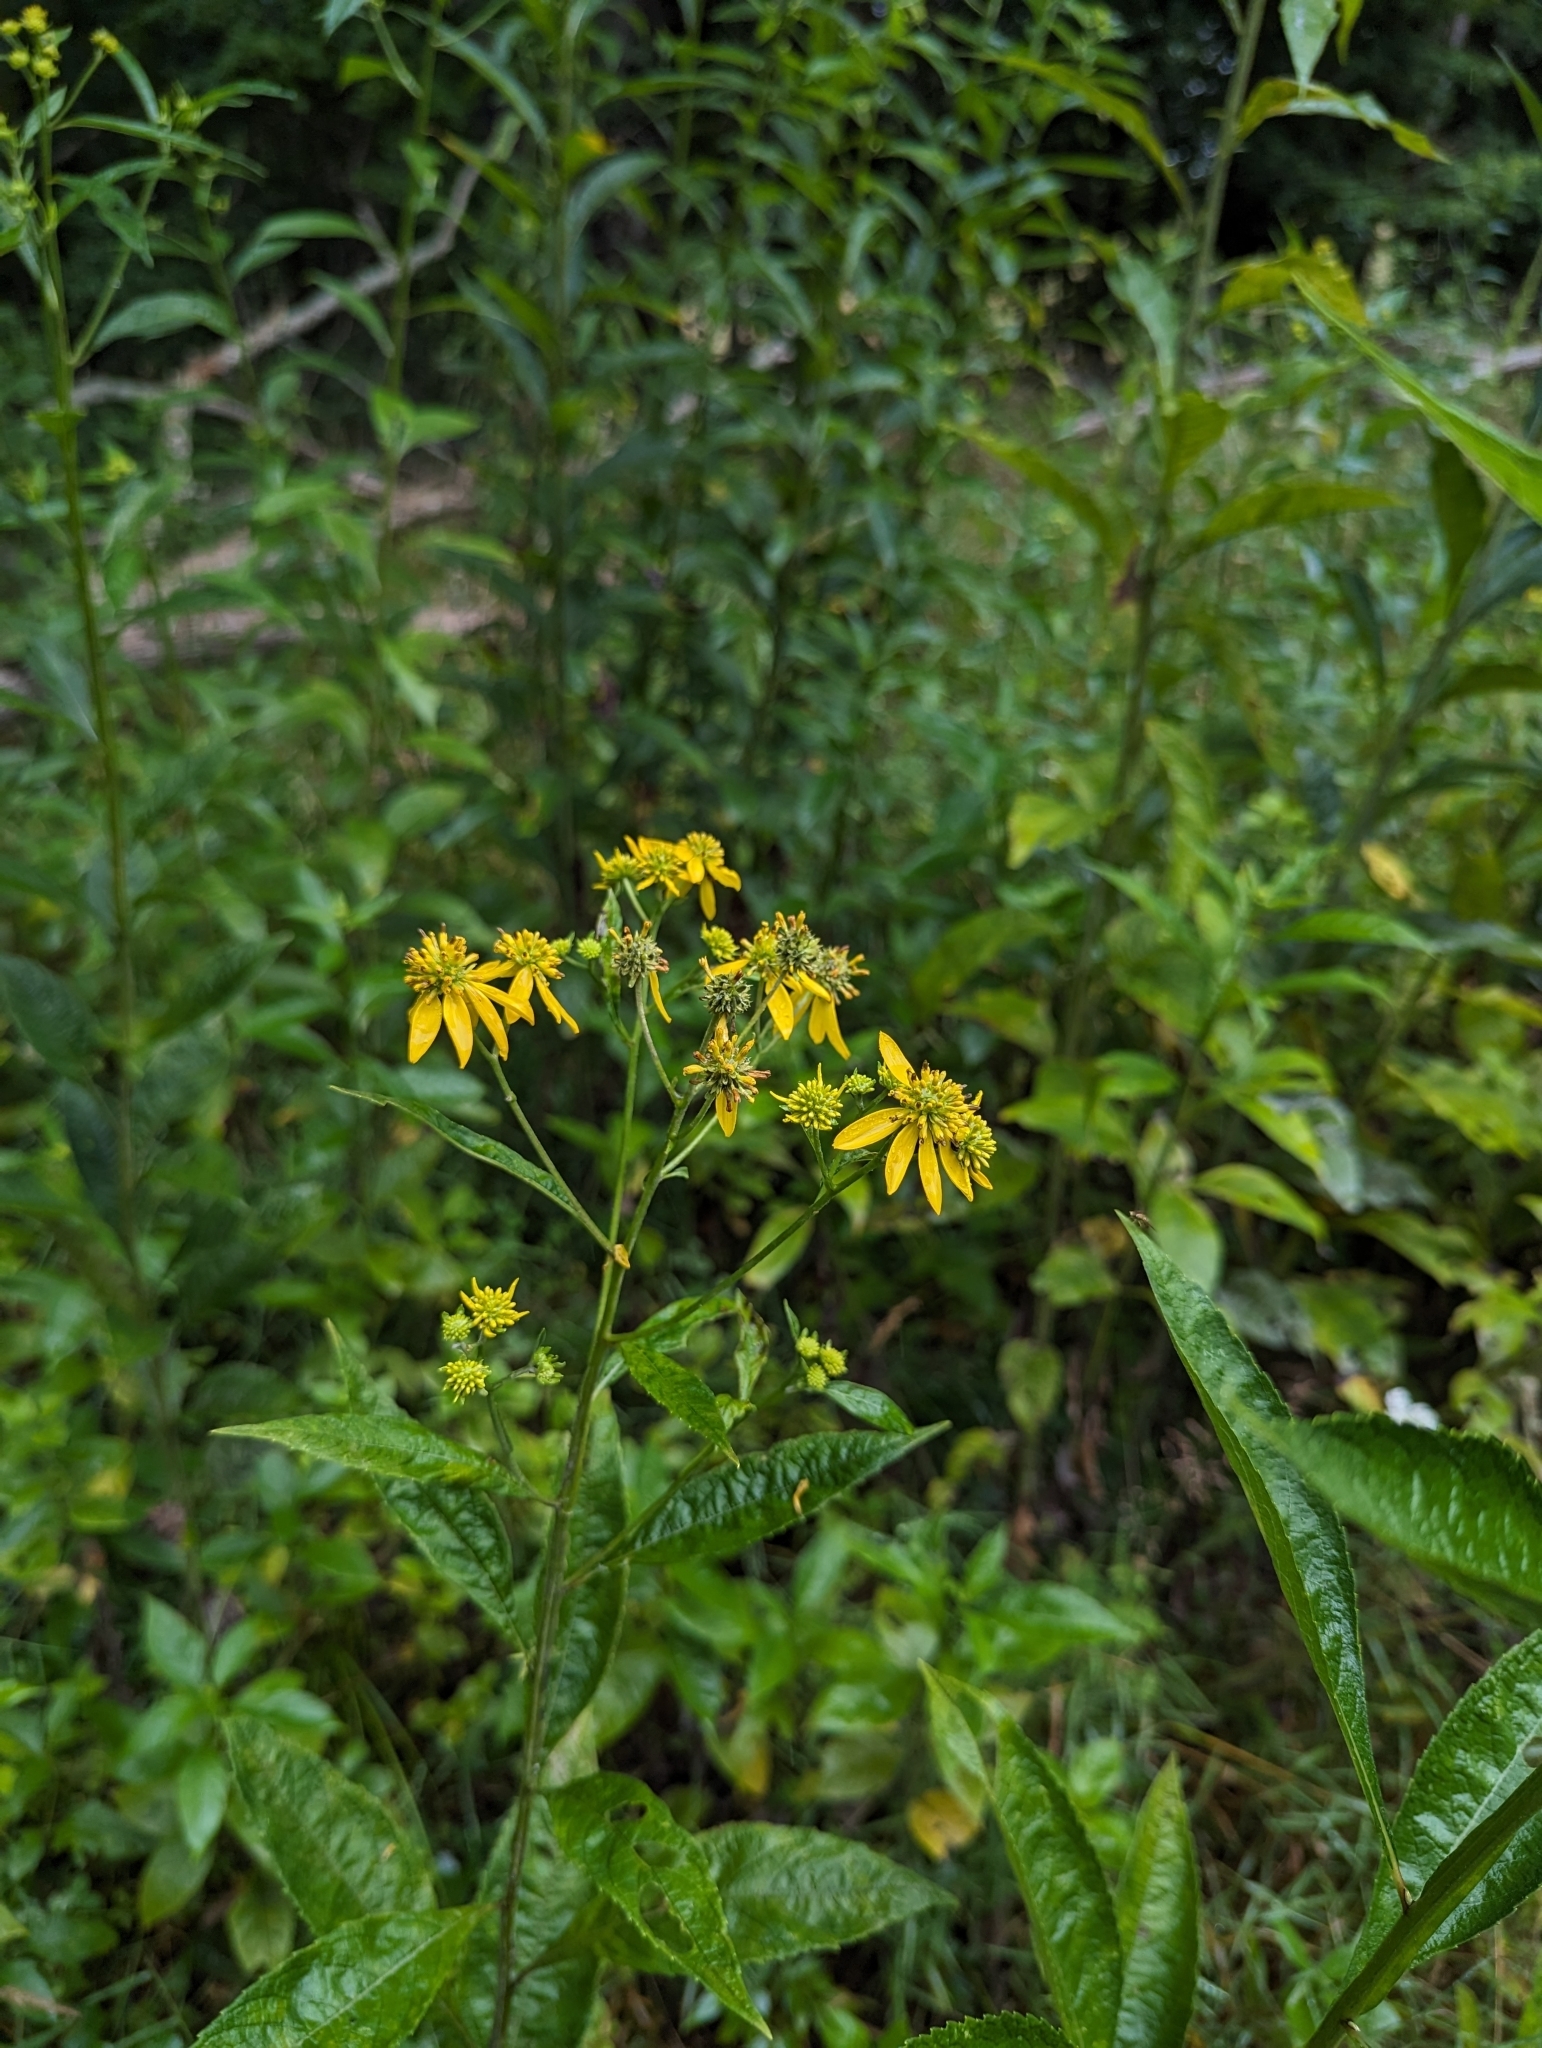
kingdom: Plantae
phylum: Tracheophyta
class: Magnoliopsida
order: Asterales
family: Asteraceae
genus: Verbesina
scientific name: Verbesina alternifolia
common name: Wingstem
